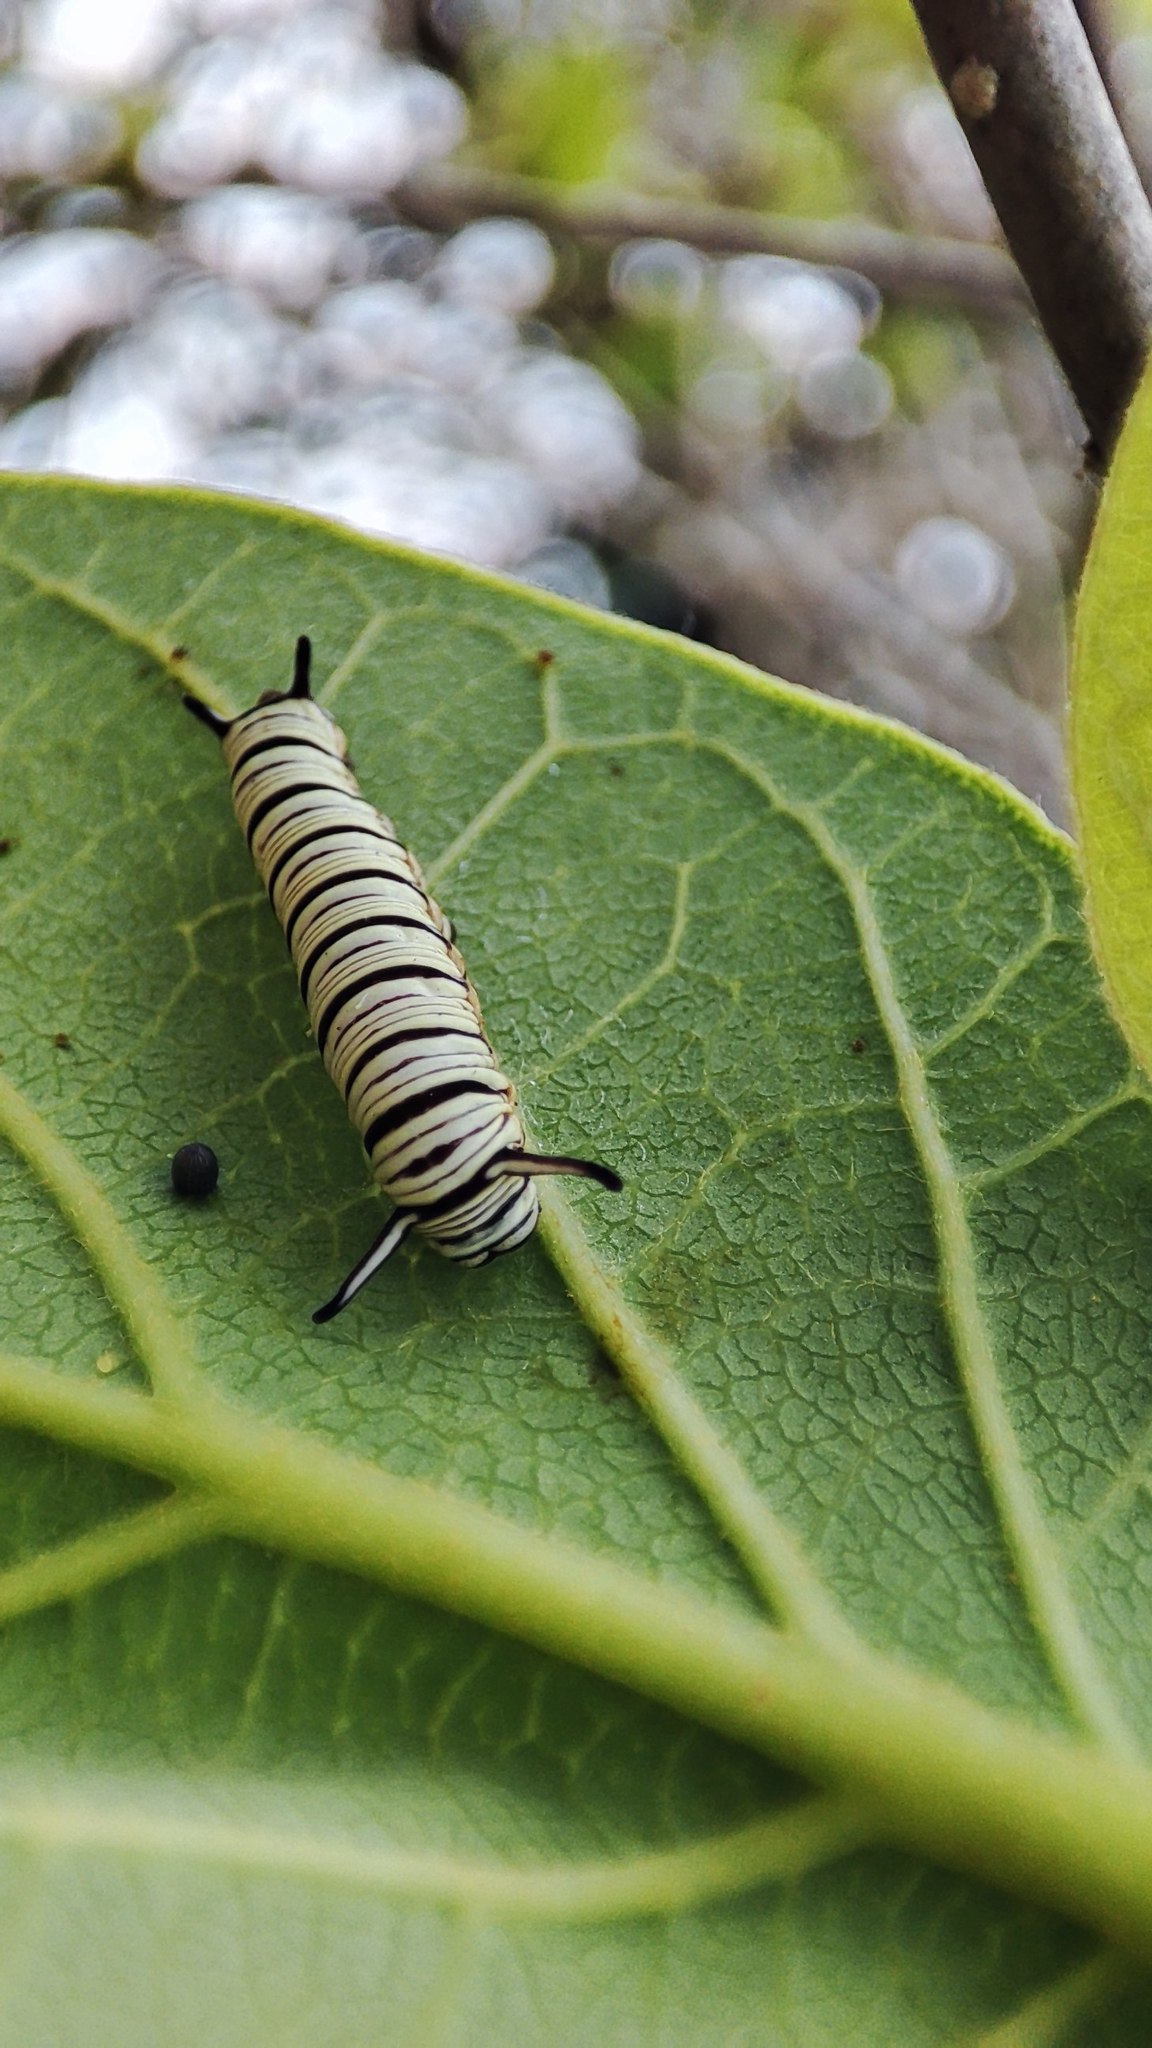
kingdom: Animalia
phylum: Arthropoda
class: Insecta
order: Lepidoptera
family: Nymphalidae
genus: Tirumala
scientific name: Tirumala limniace
